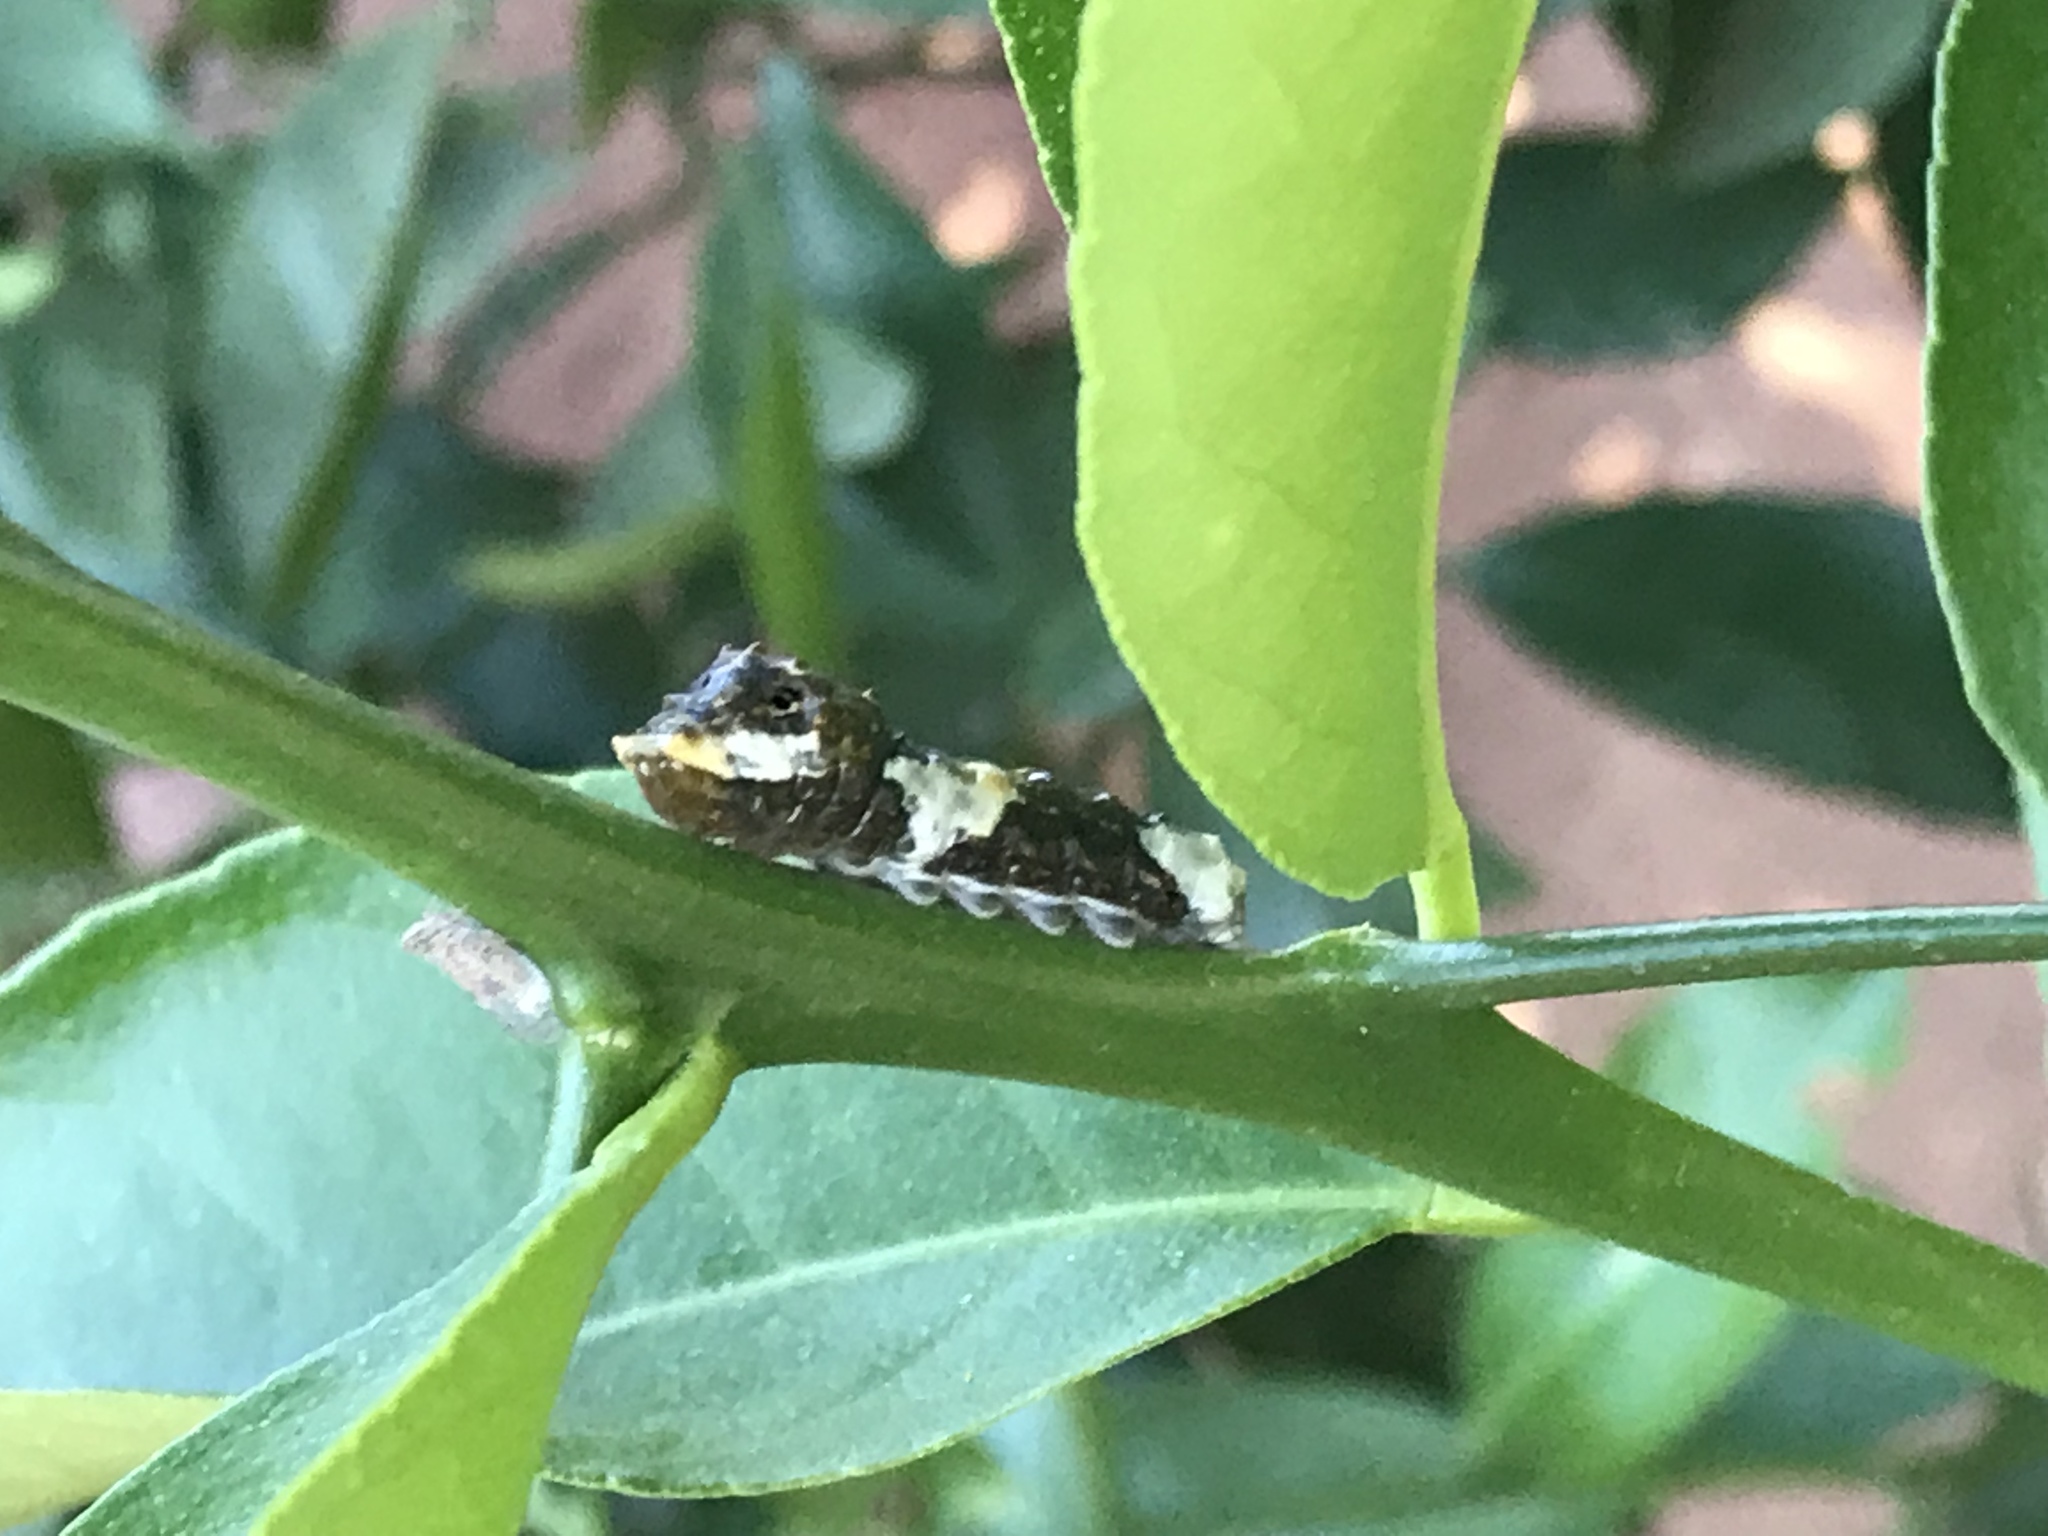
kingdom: Animalia
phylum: Arthropoda
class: Insecta
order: Lepidoptera
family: Papilionidae
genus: Papilio
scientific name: Papilio rumiko
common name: Western giant swallowtail
